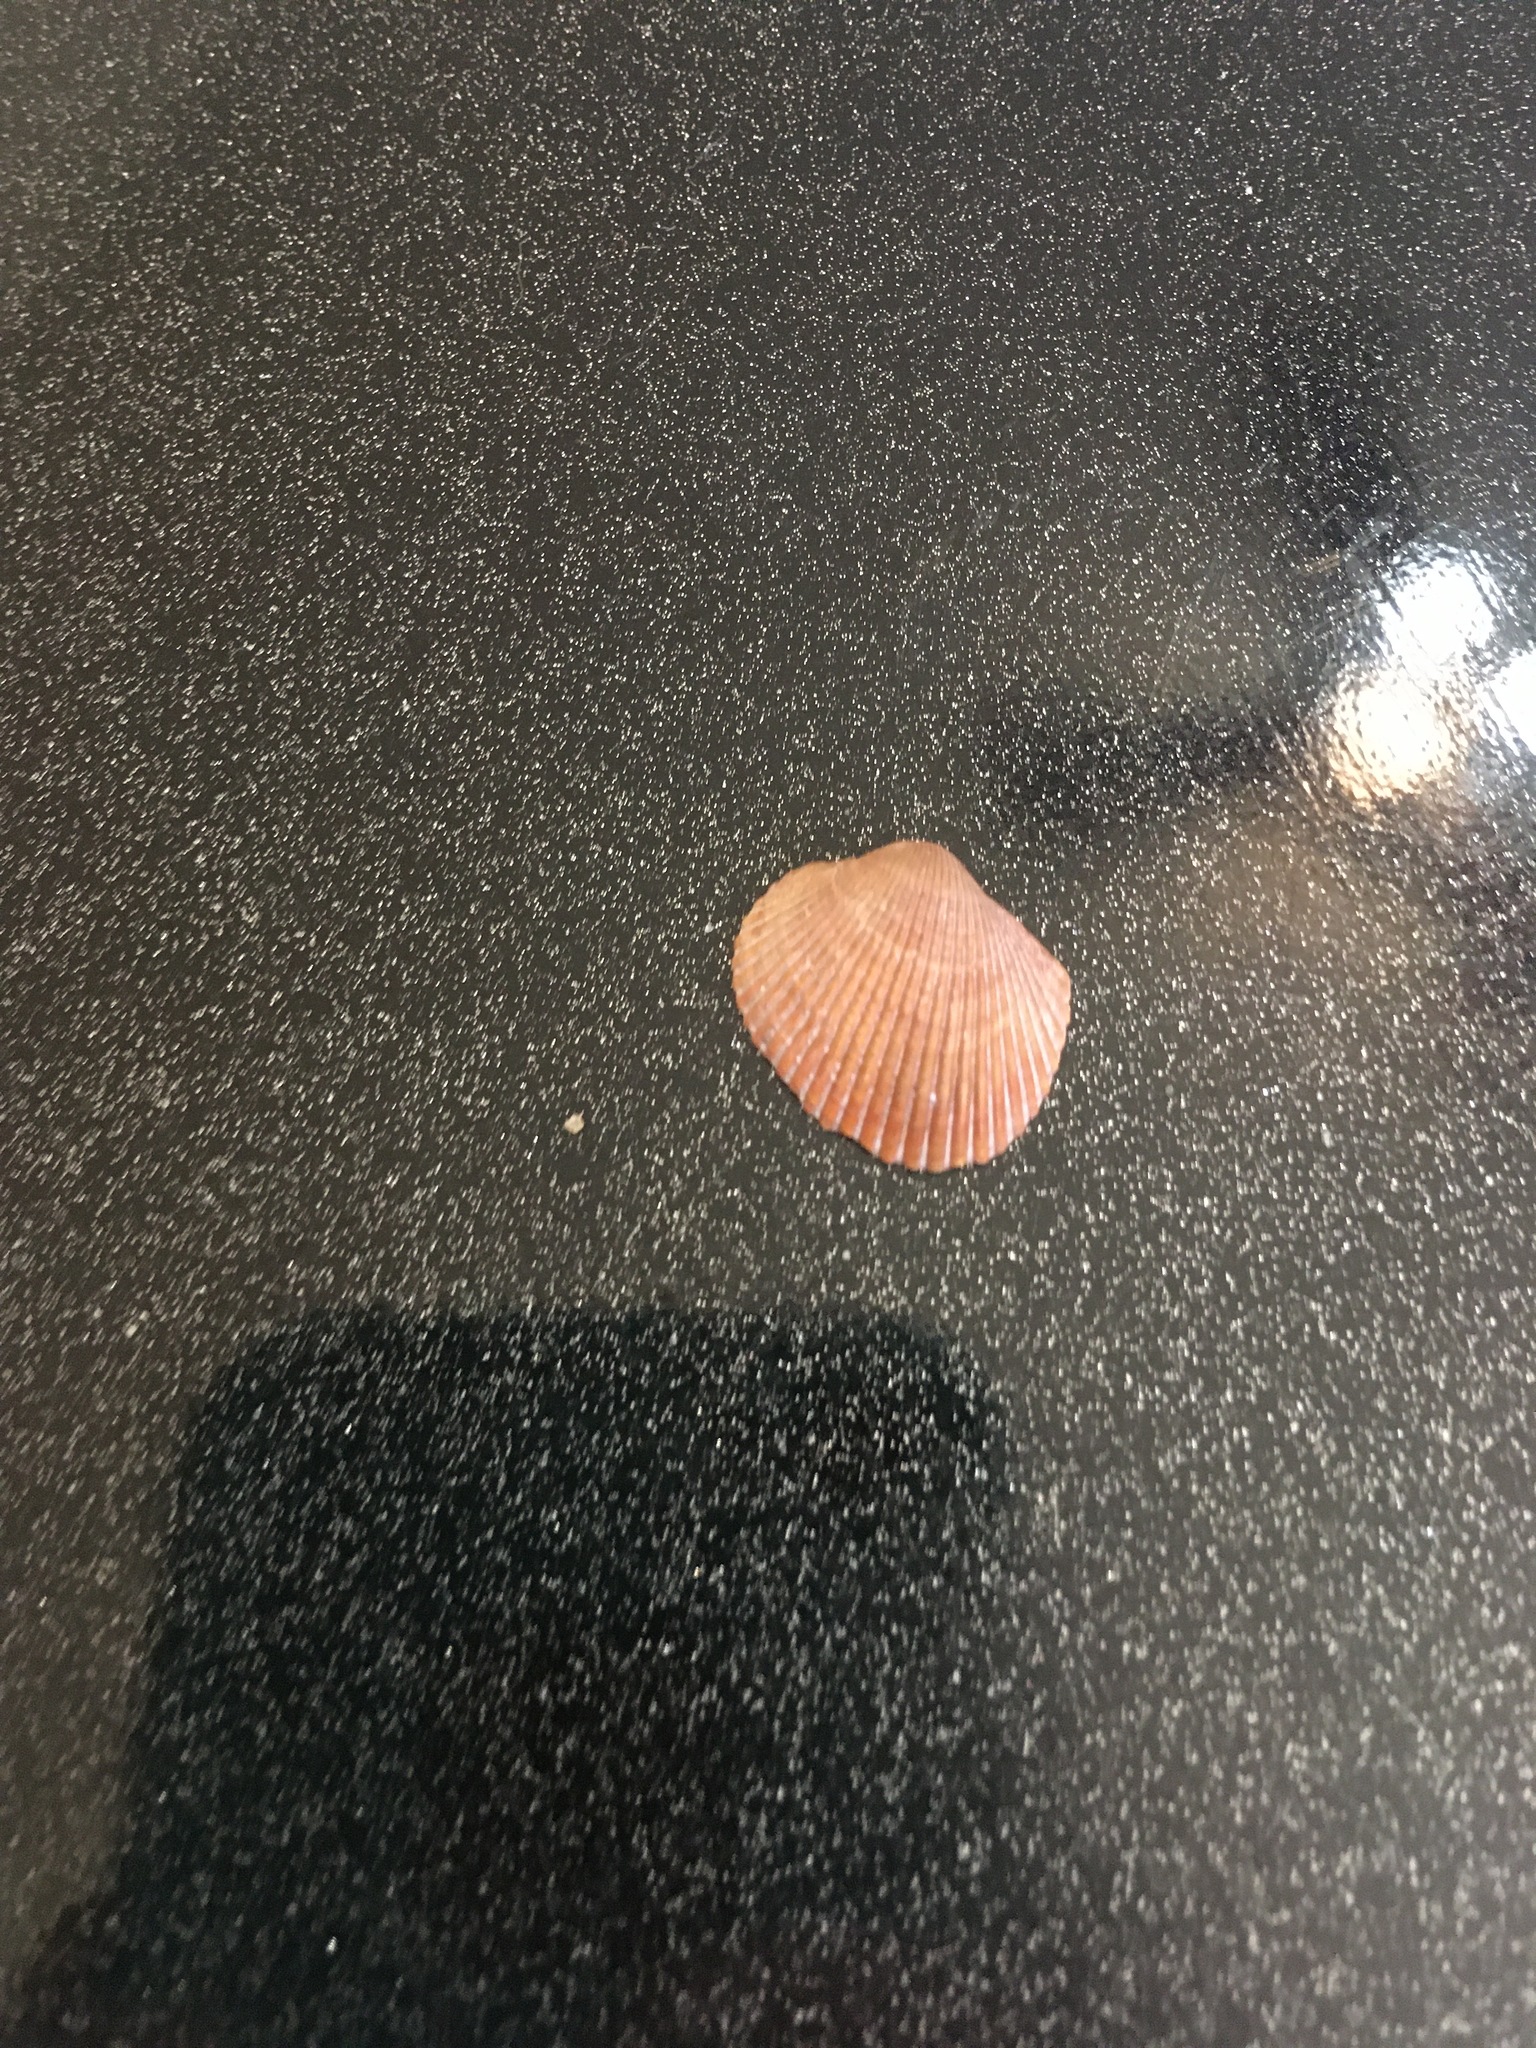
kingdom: Animalia
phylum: Mollusca
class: Bivalvia
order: Arcida
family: Arcidae
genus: Lunarca
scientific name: Lunarca ovalis
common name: Blood ark
